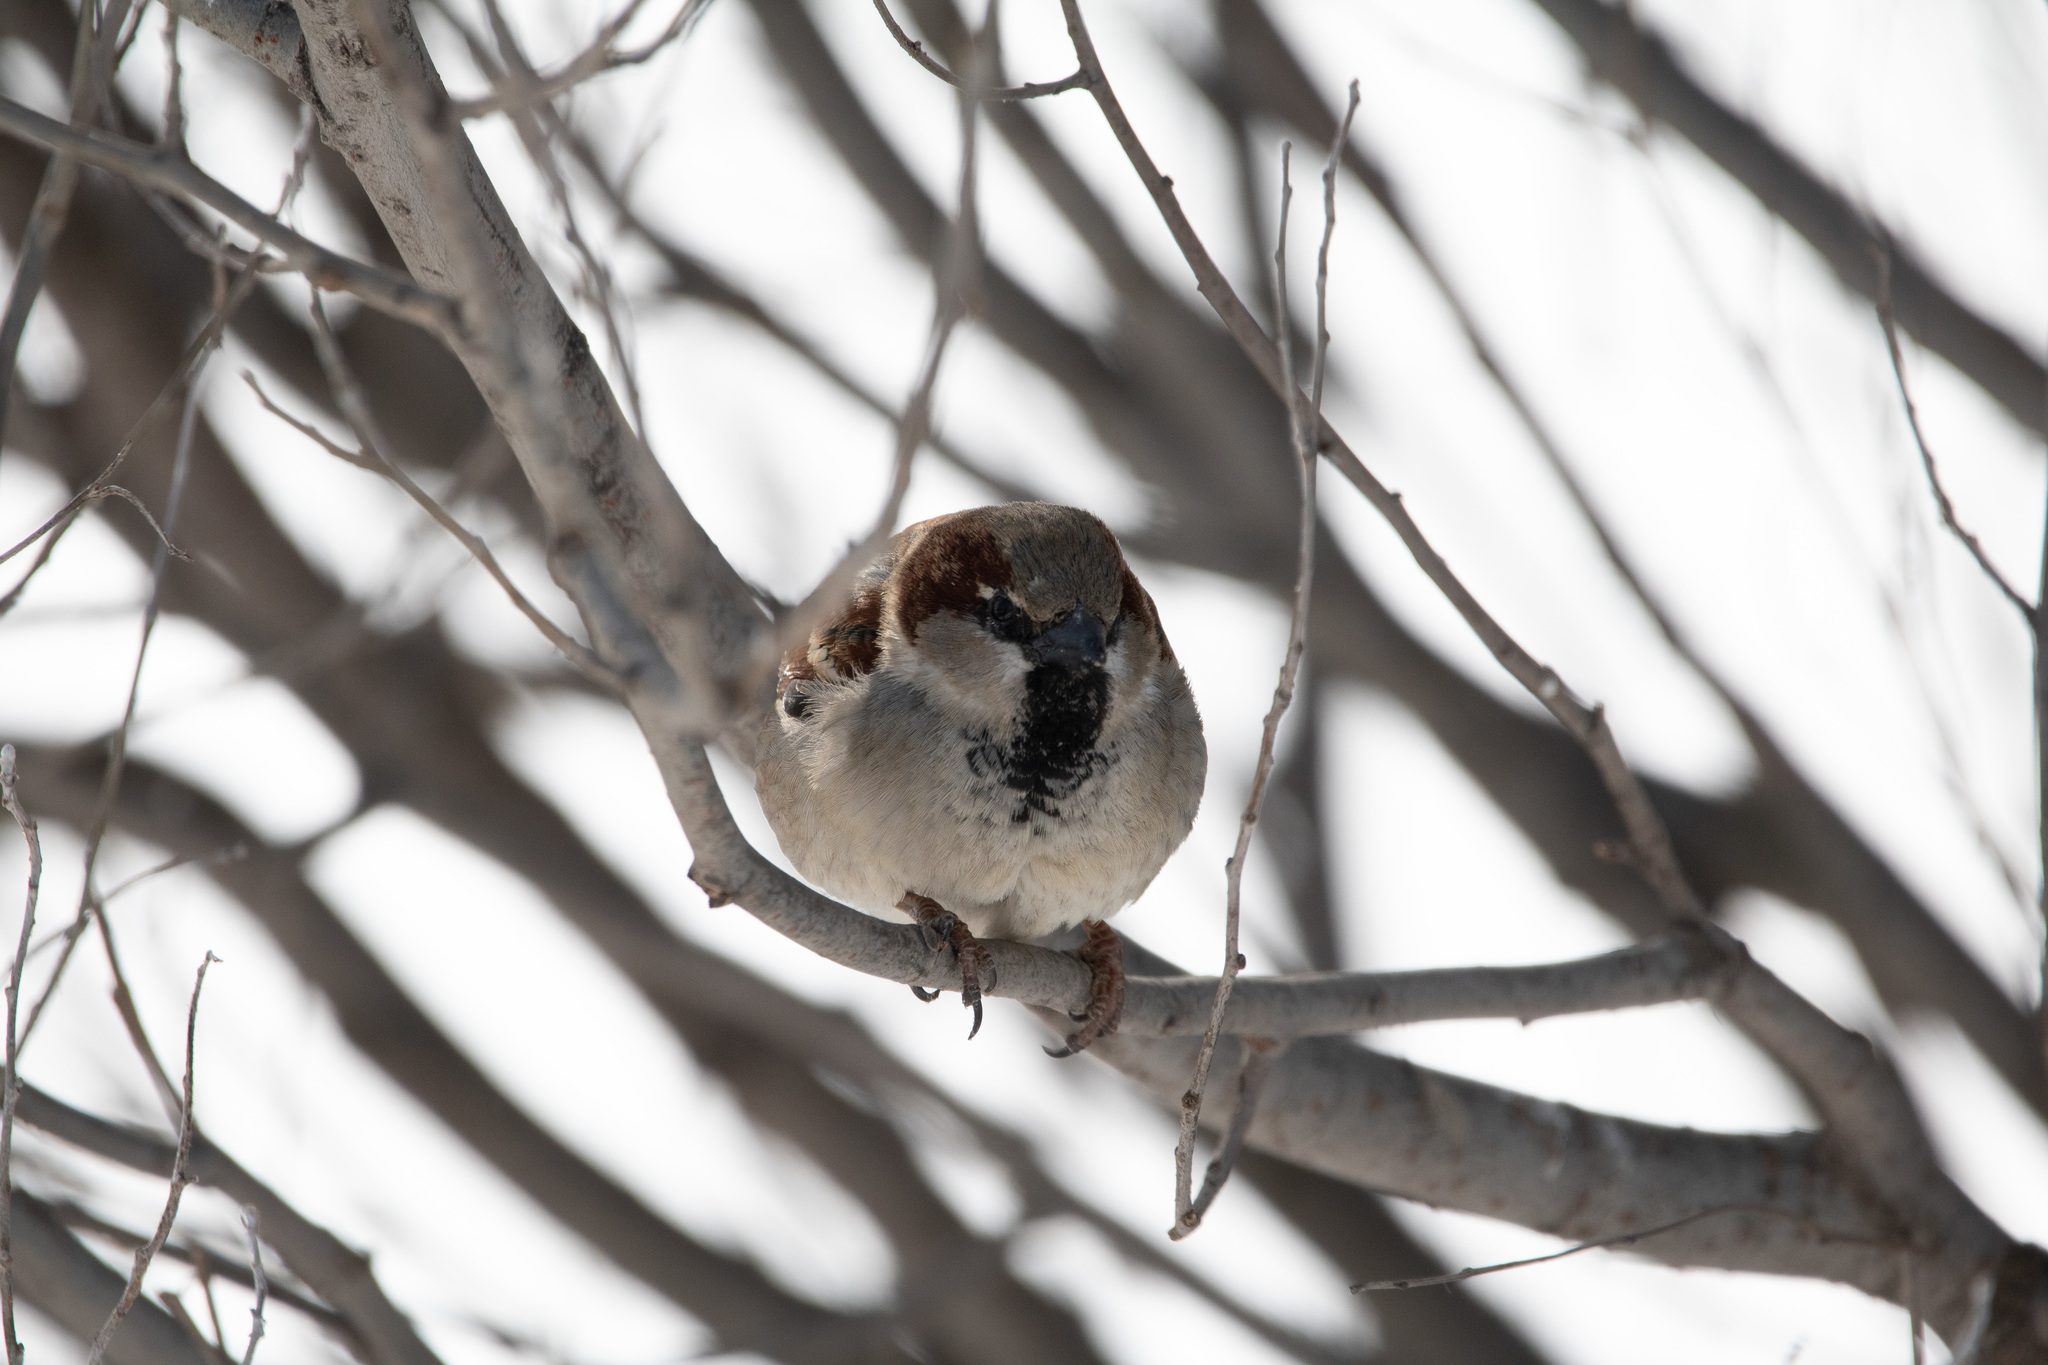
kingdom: Animalia
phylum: Chordata
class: Aves
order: Passeriformes
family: Passeridae
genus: Passer
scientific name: Passer domesticus
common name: House sparrow
